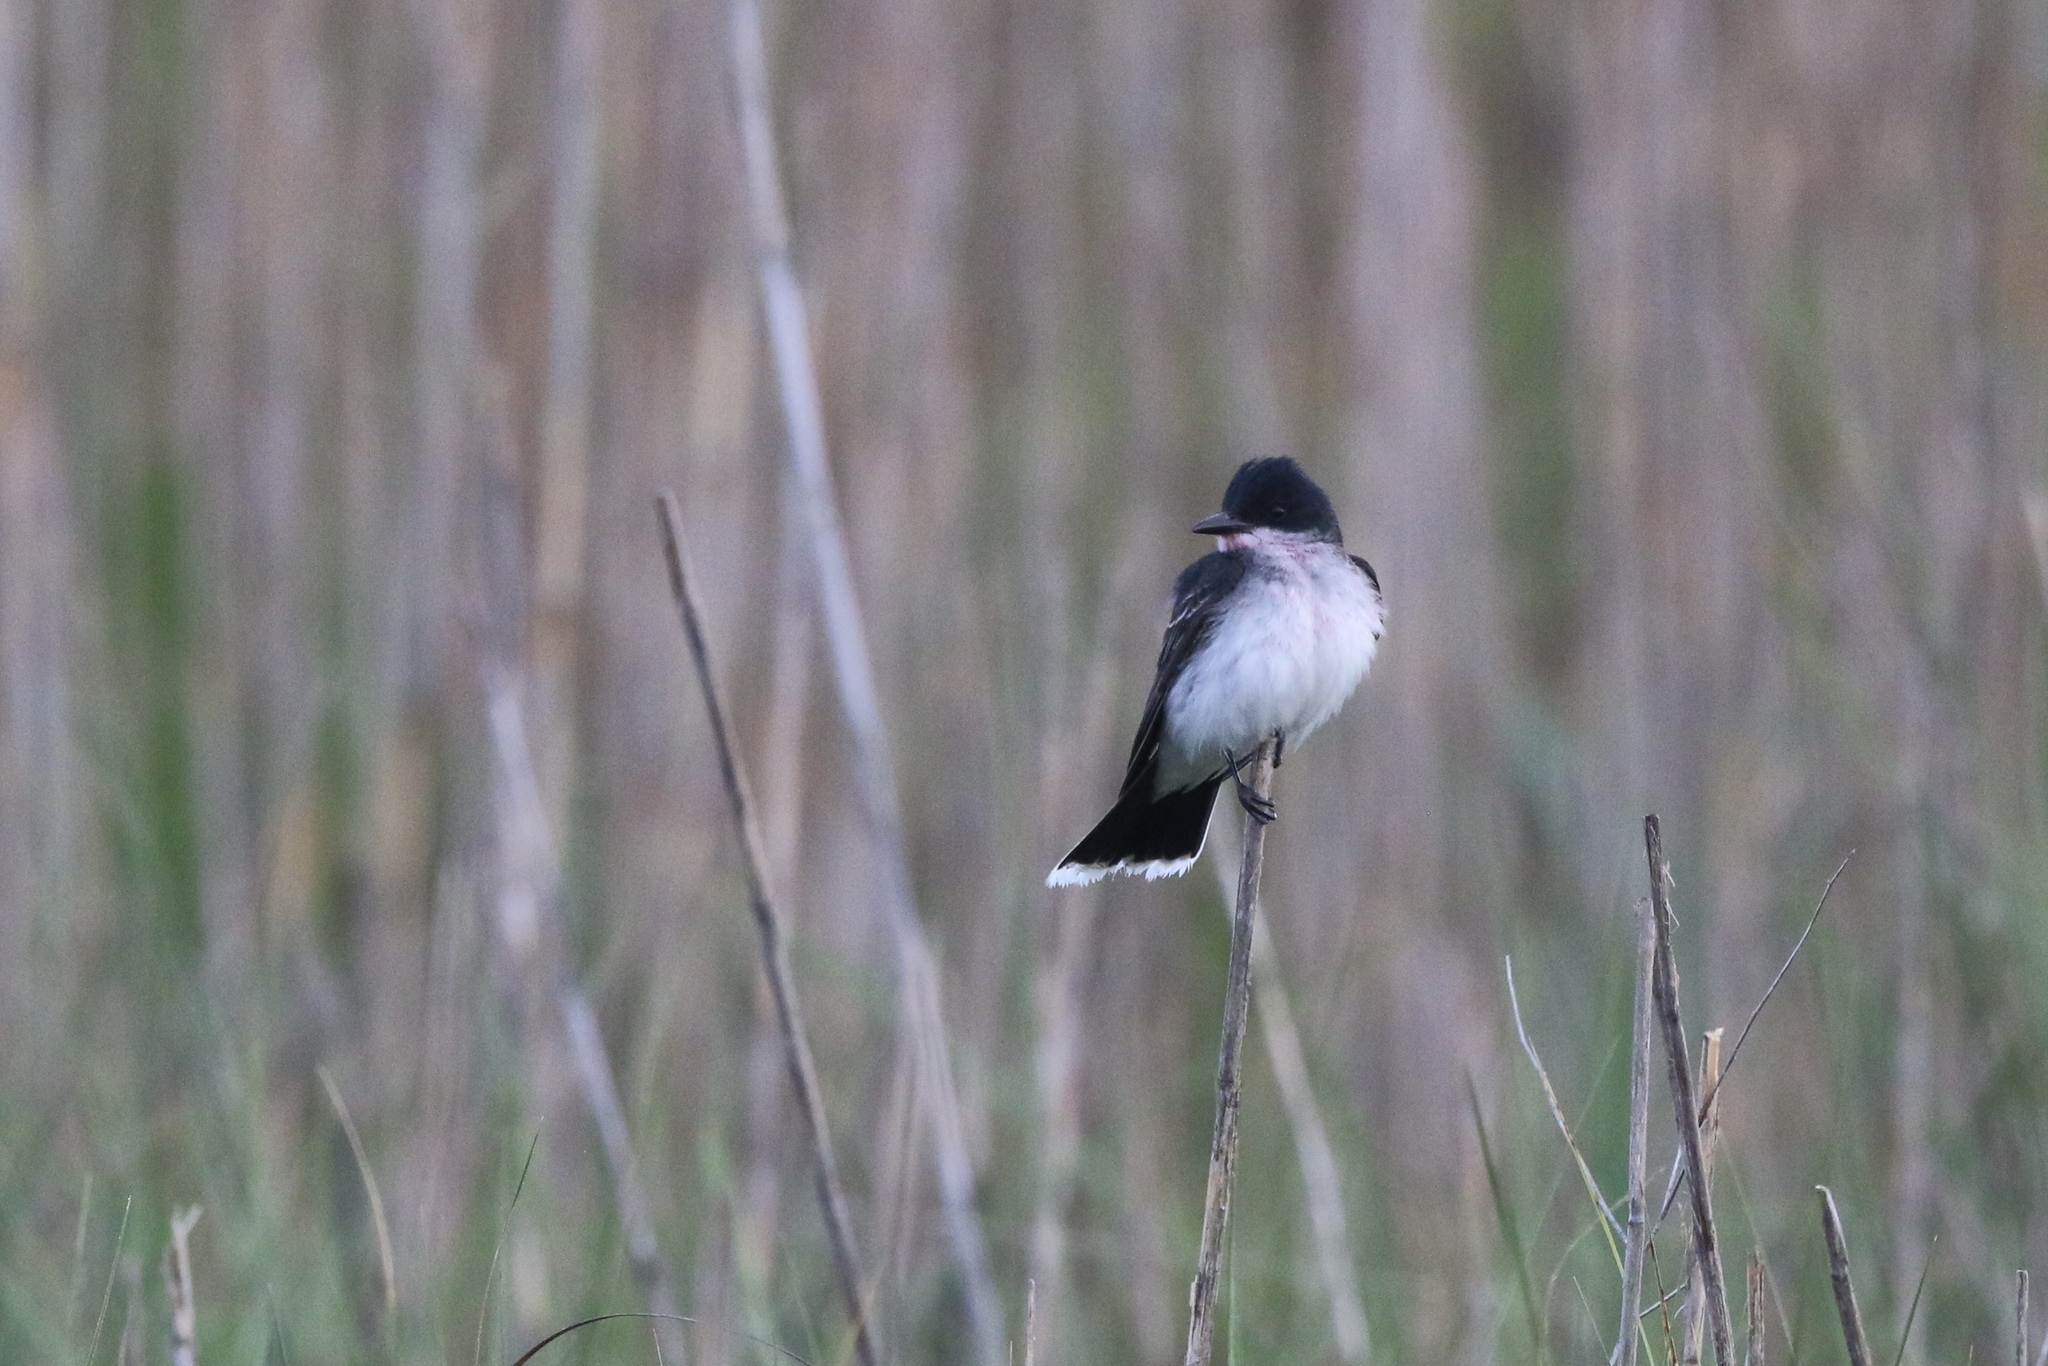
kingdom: Animalia
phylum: Chordata
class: Aves
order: Passeriformes
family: Tyrannidae
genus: Tyrannus
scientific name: Tyrannus tyrannus
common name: Eastern kingbird
